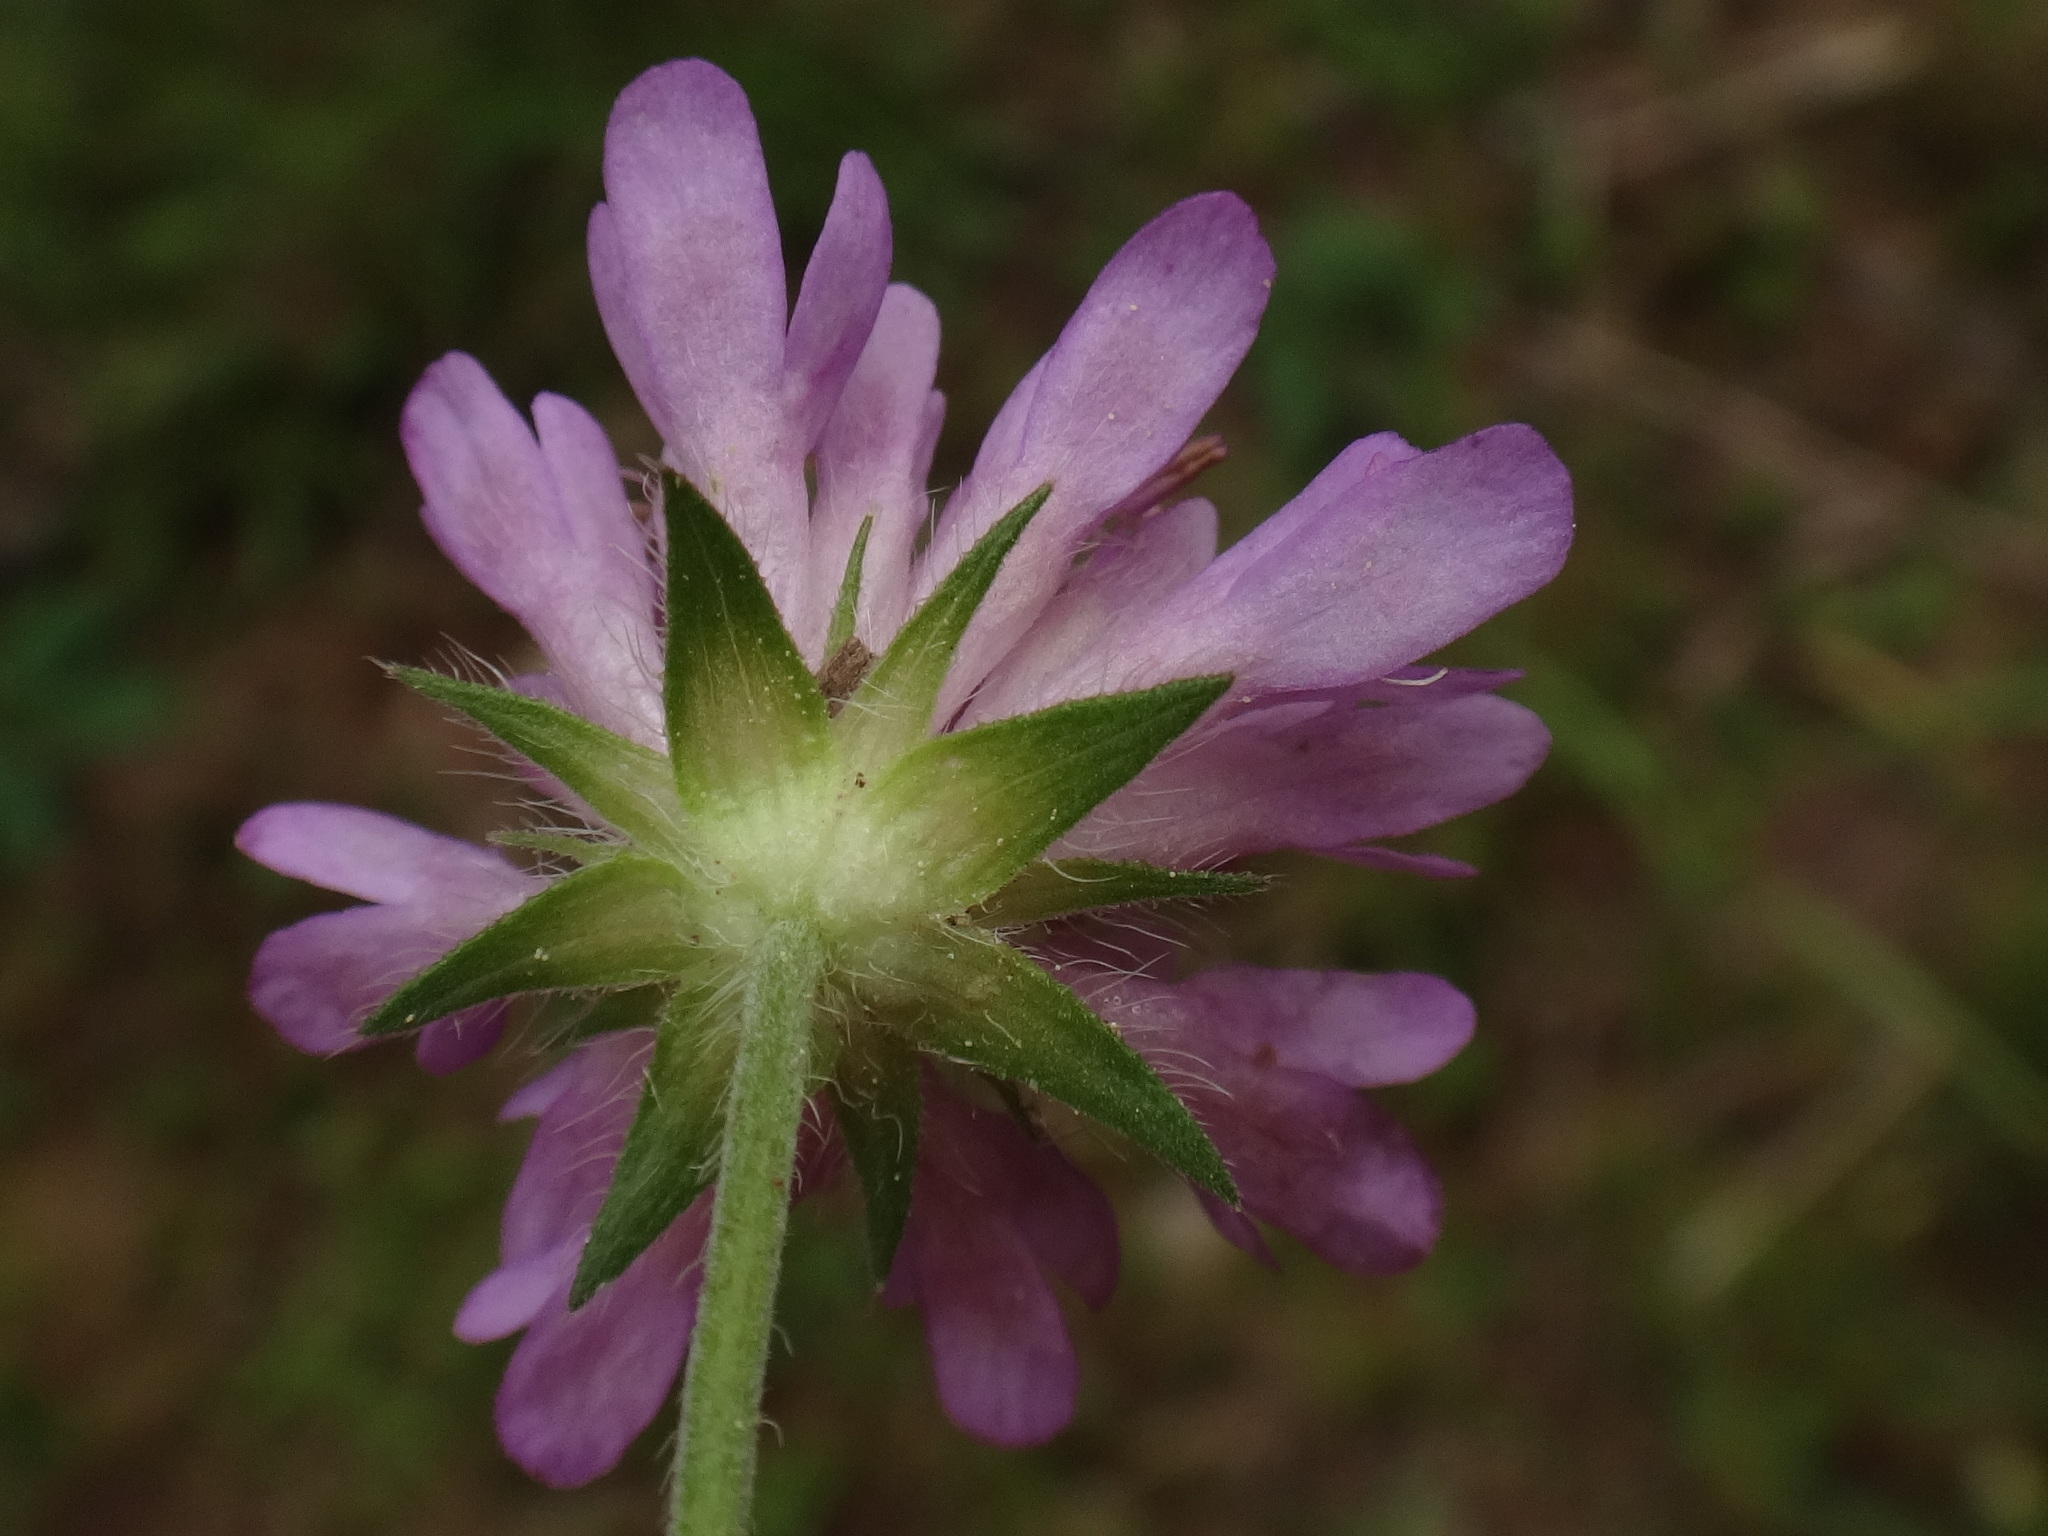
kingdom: Plantae
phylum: Tracheophyta
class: Magnoliopsida
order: Dipsacales
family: Caprifoliaceae
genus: Knautia
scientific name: Knautia drymeia
